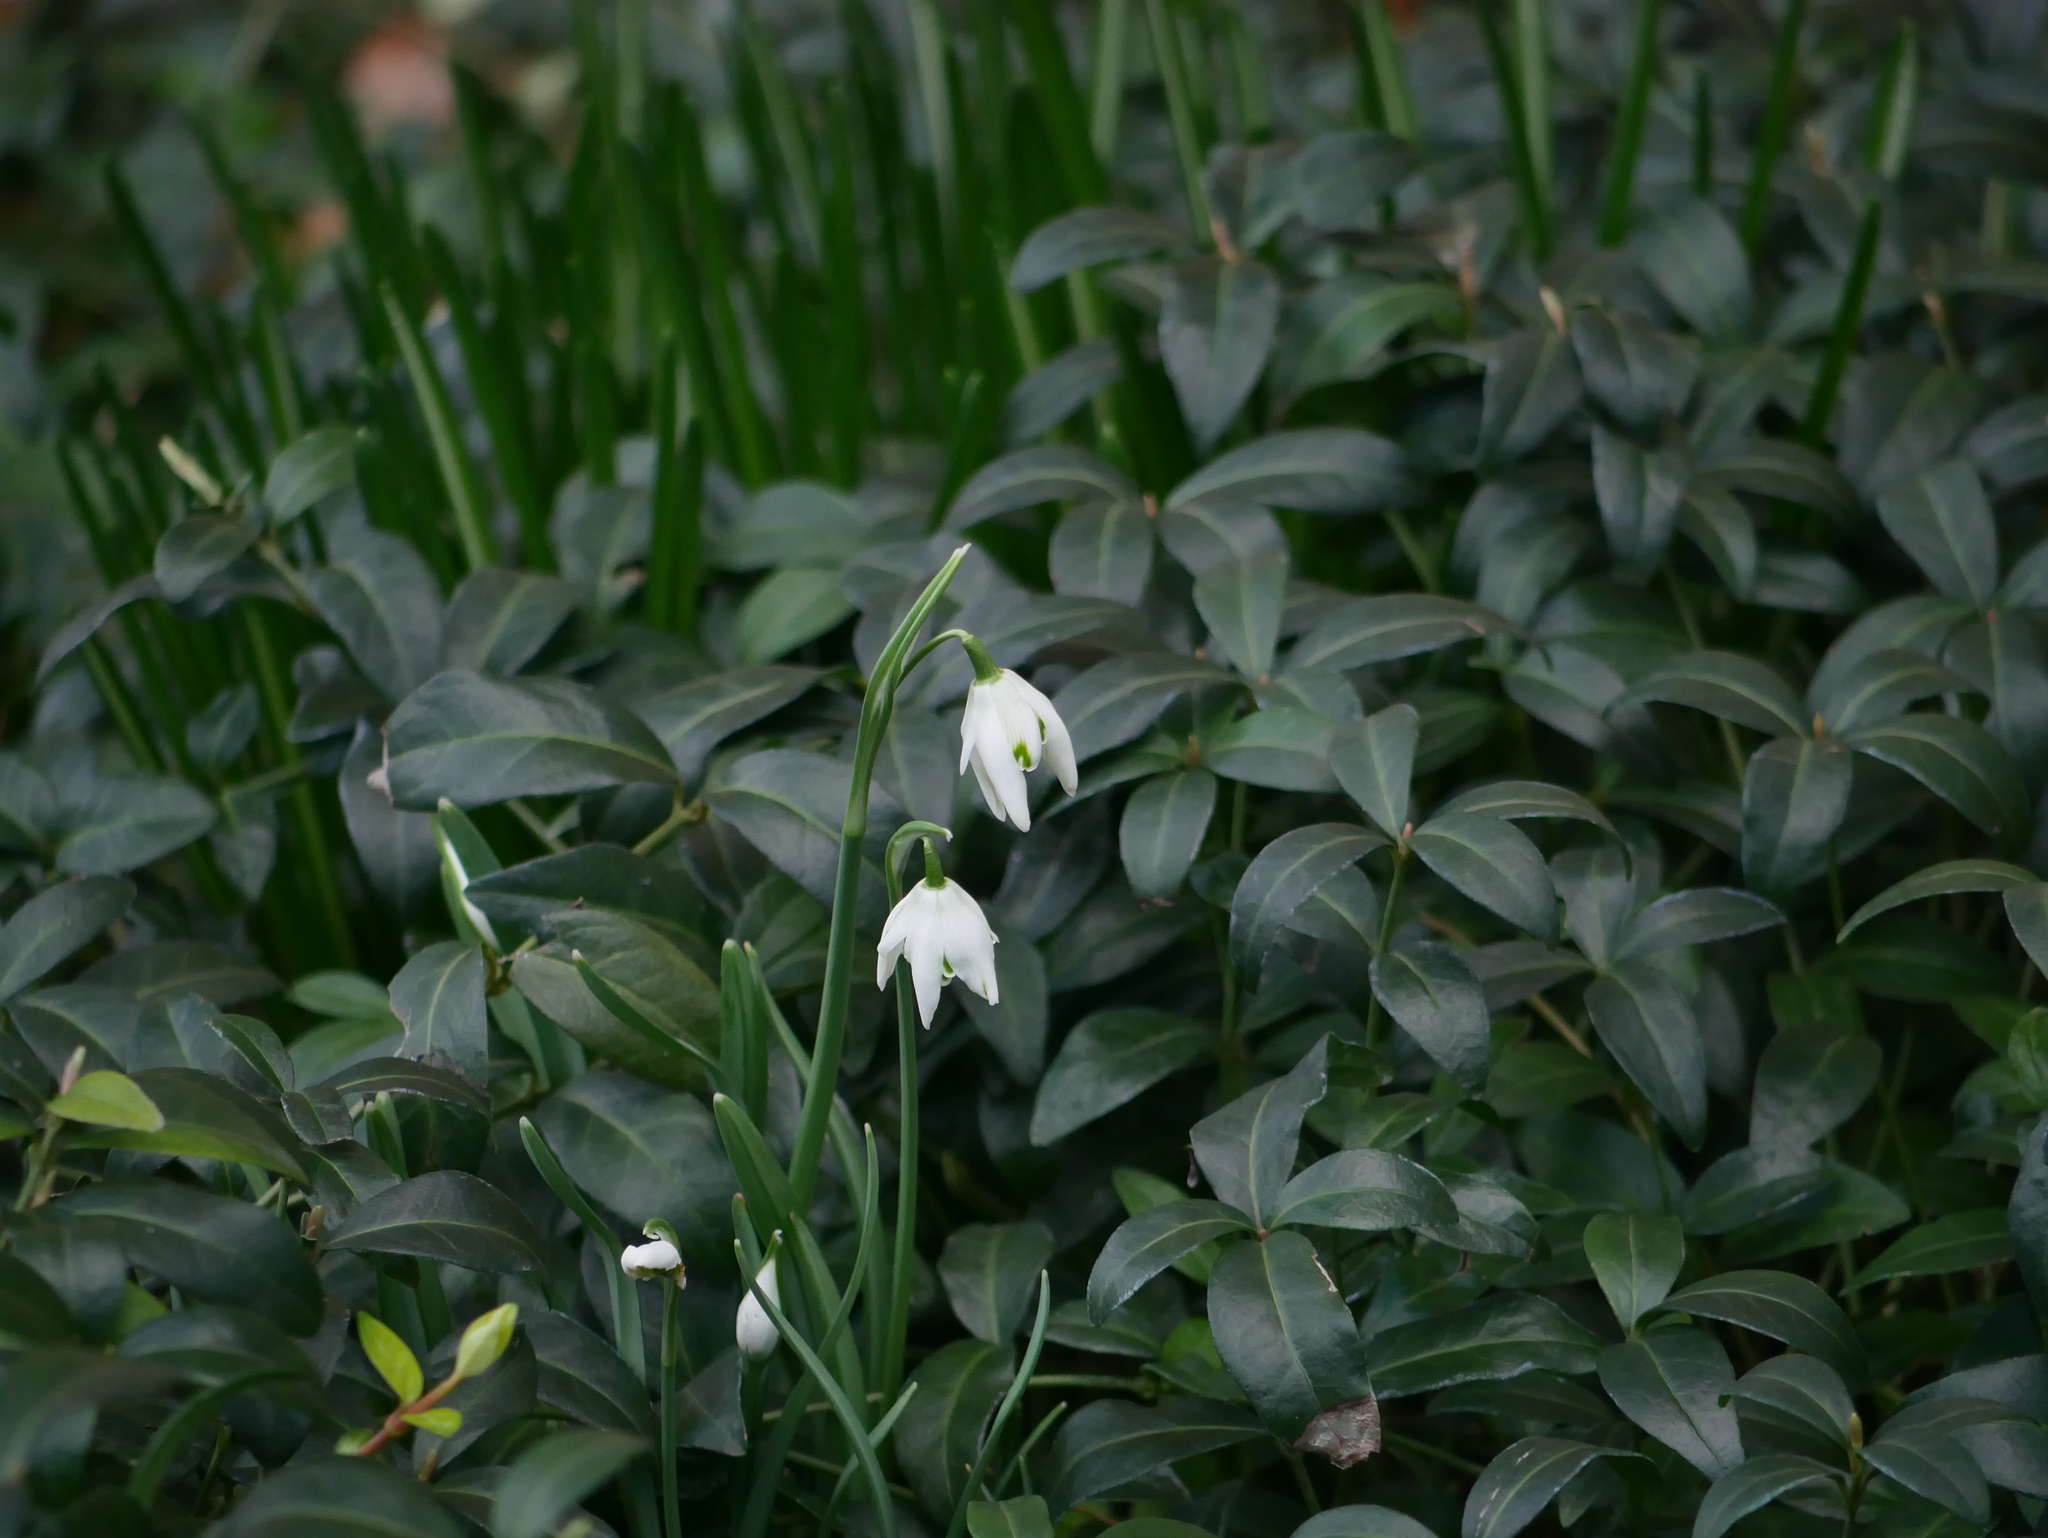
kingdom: Plantae
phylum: Tracheophyta
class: Liliopsida
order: Asparagales
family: Amaryllidaceae
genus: Galanthus
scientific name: Galanthus nivalis
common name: Snowdrop
